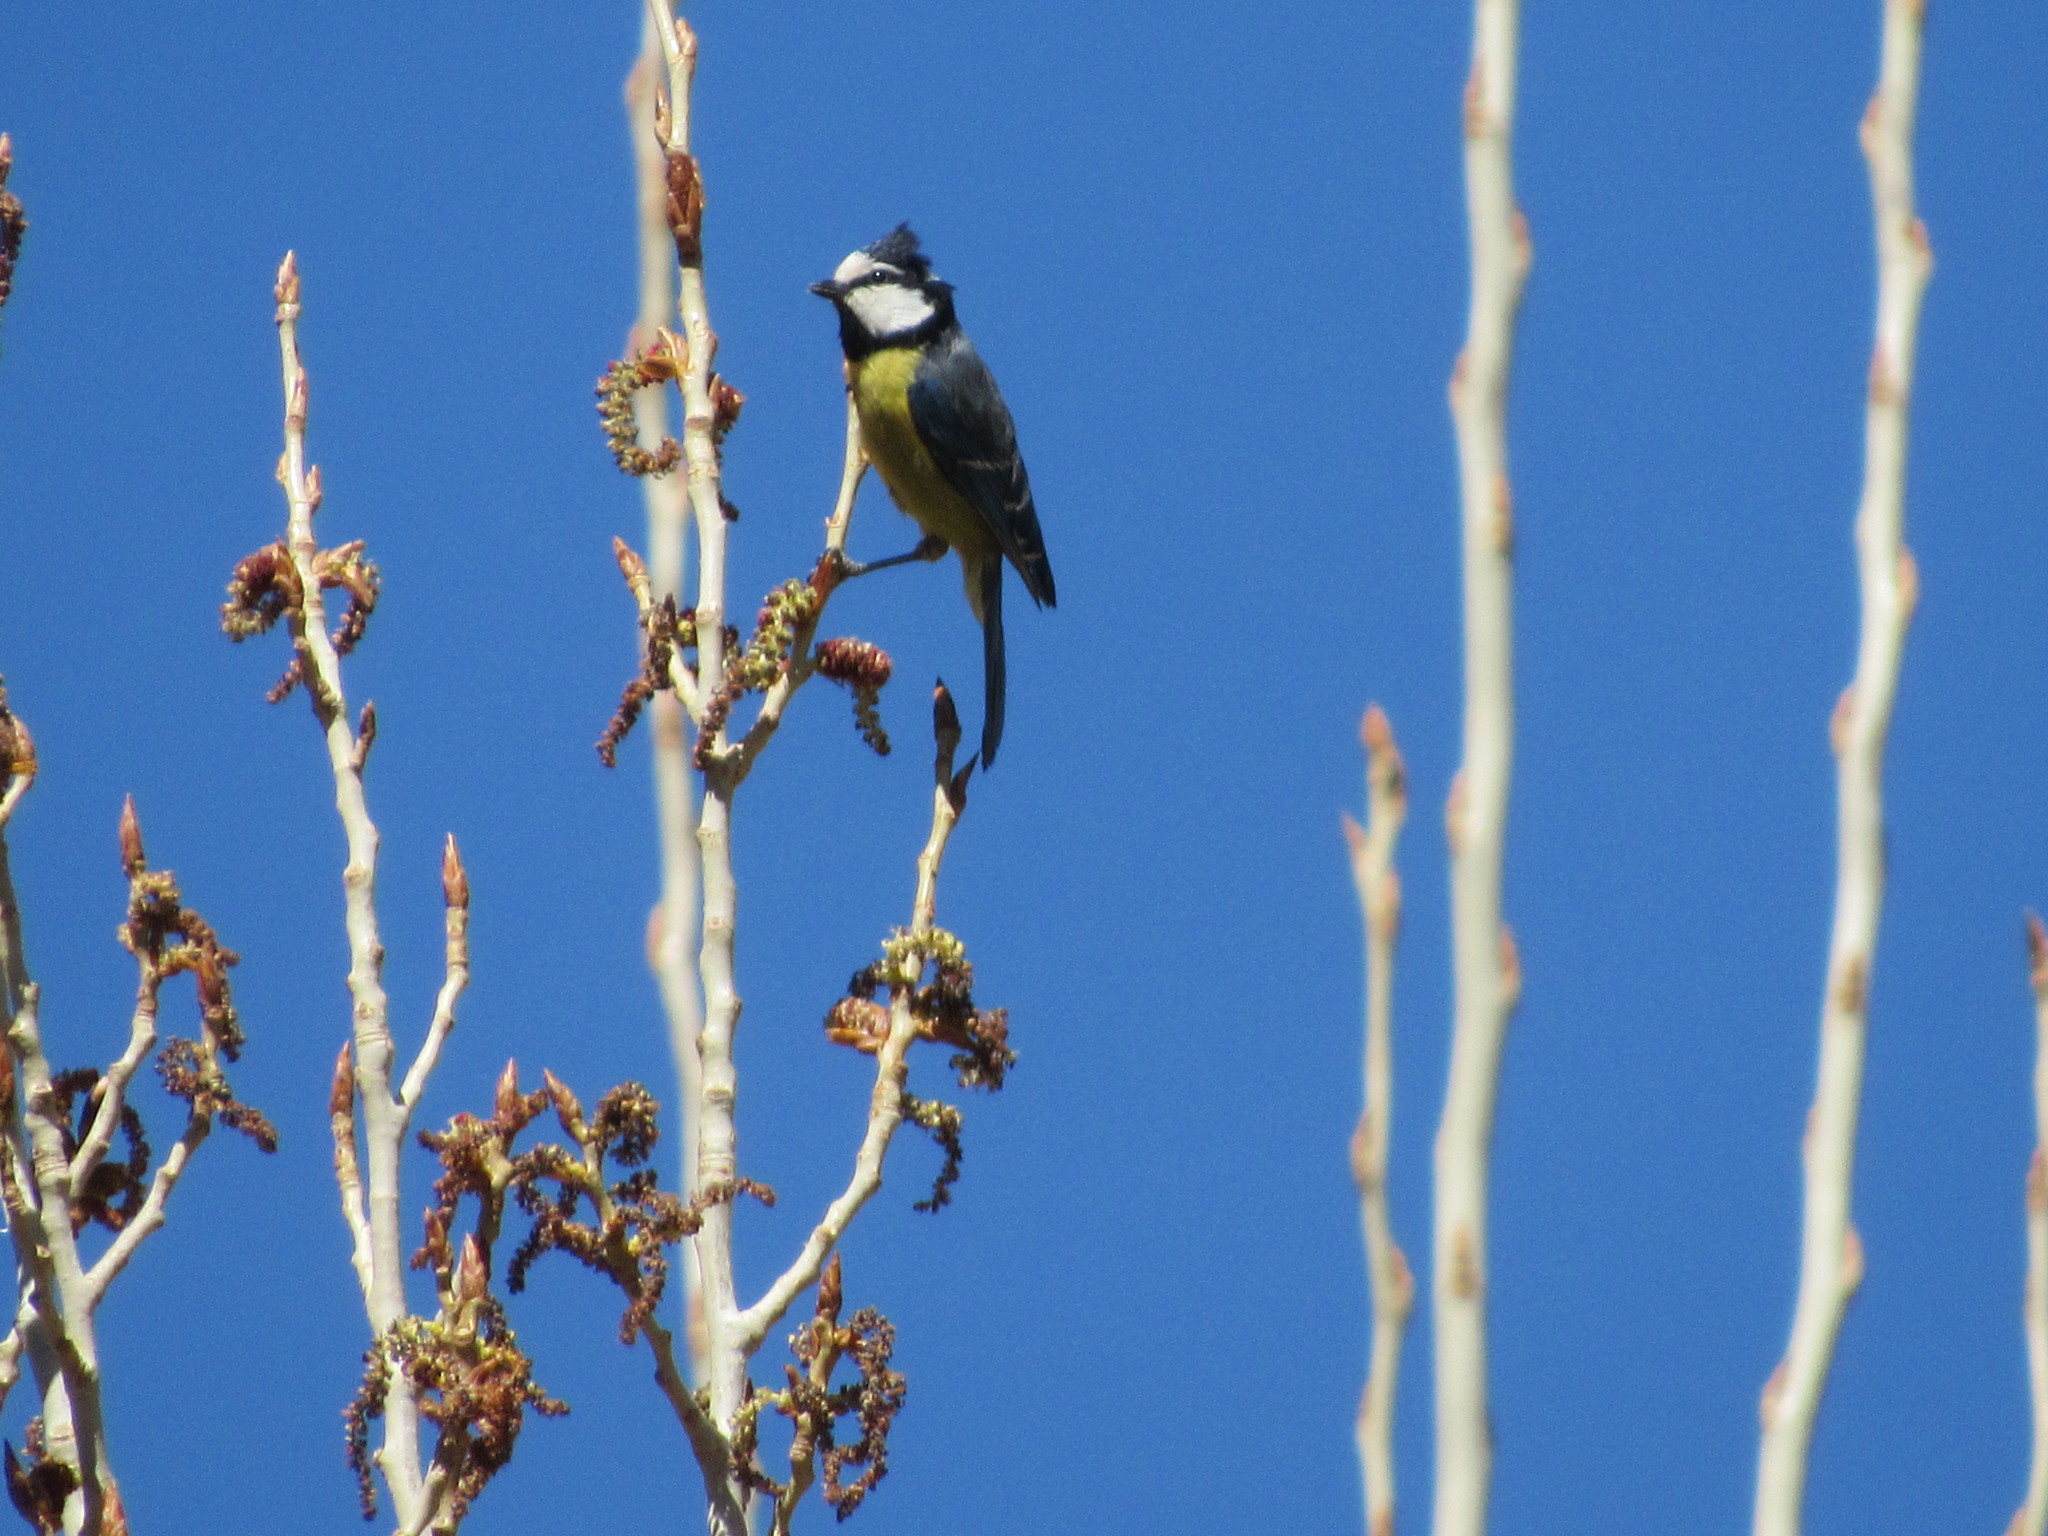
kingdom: Animalia
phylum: Chordata
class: Aves
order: Passeriformes
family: Paridae
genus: Cyanistes
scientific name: Cyanistes teneriffae
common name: African blue tit
